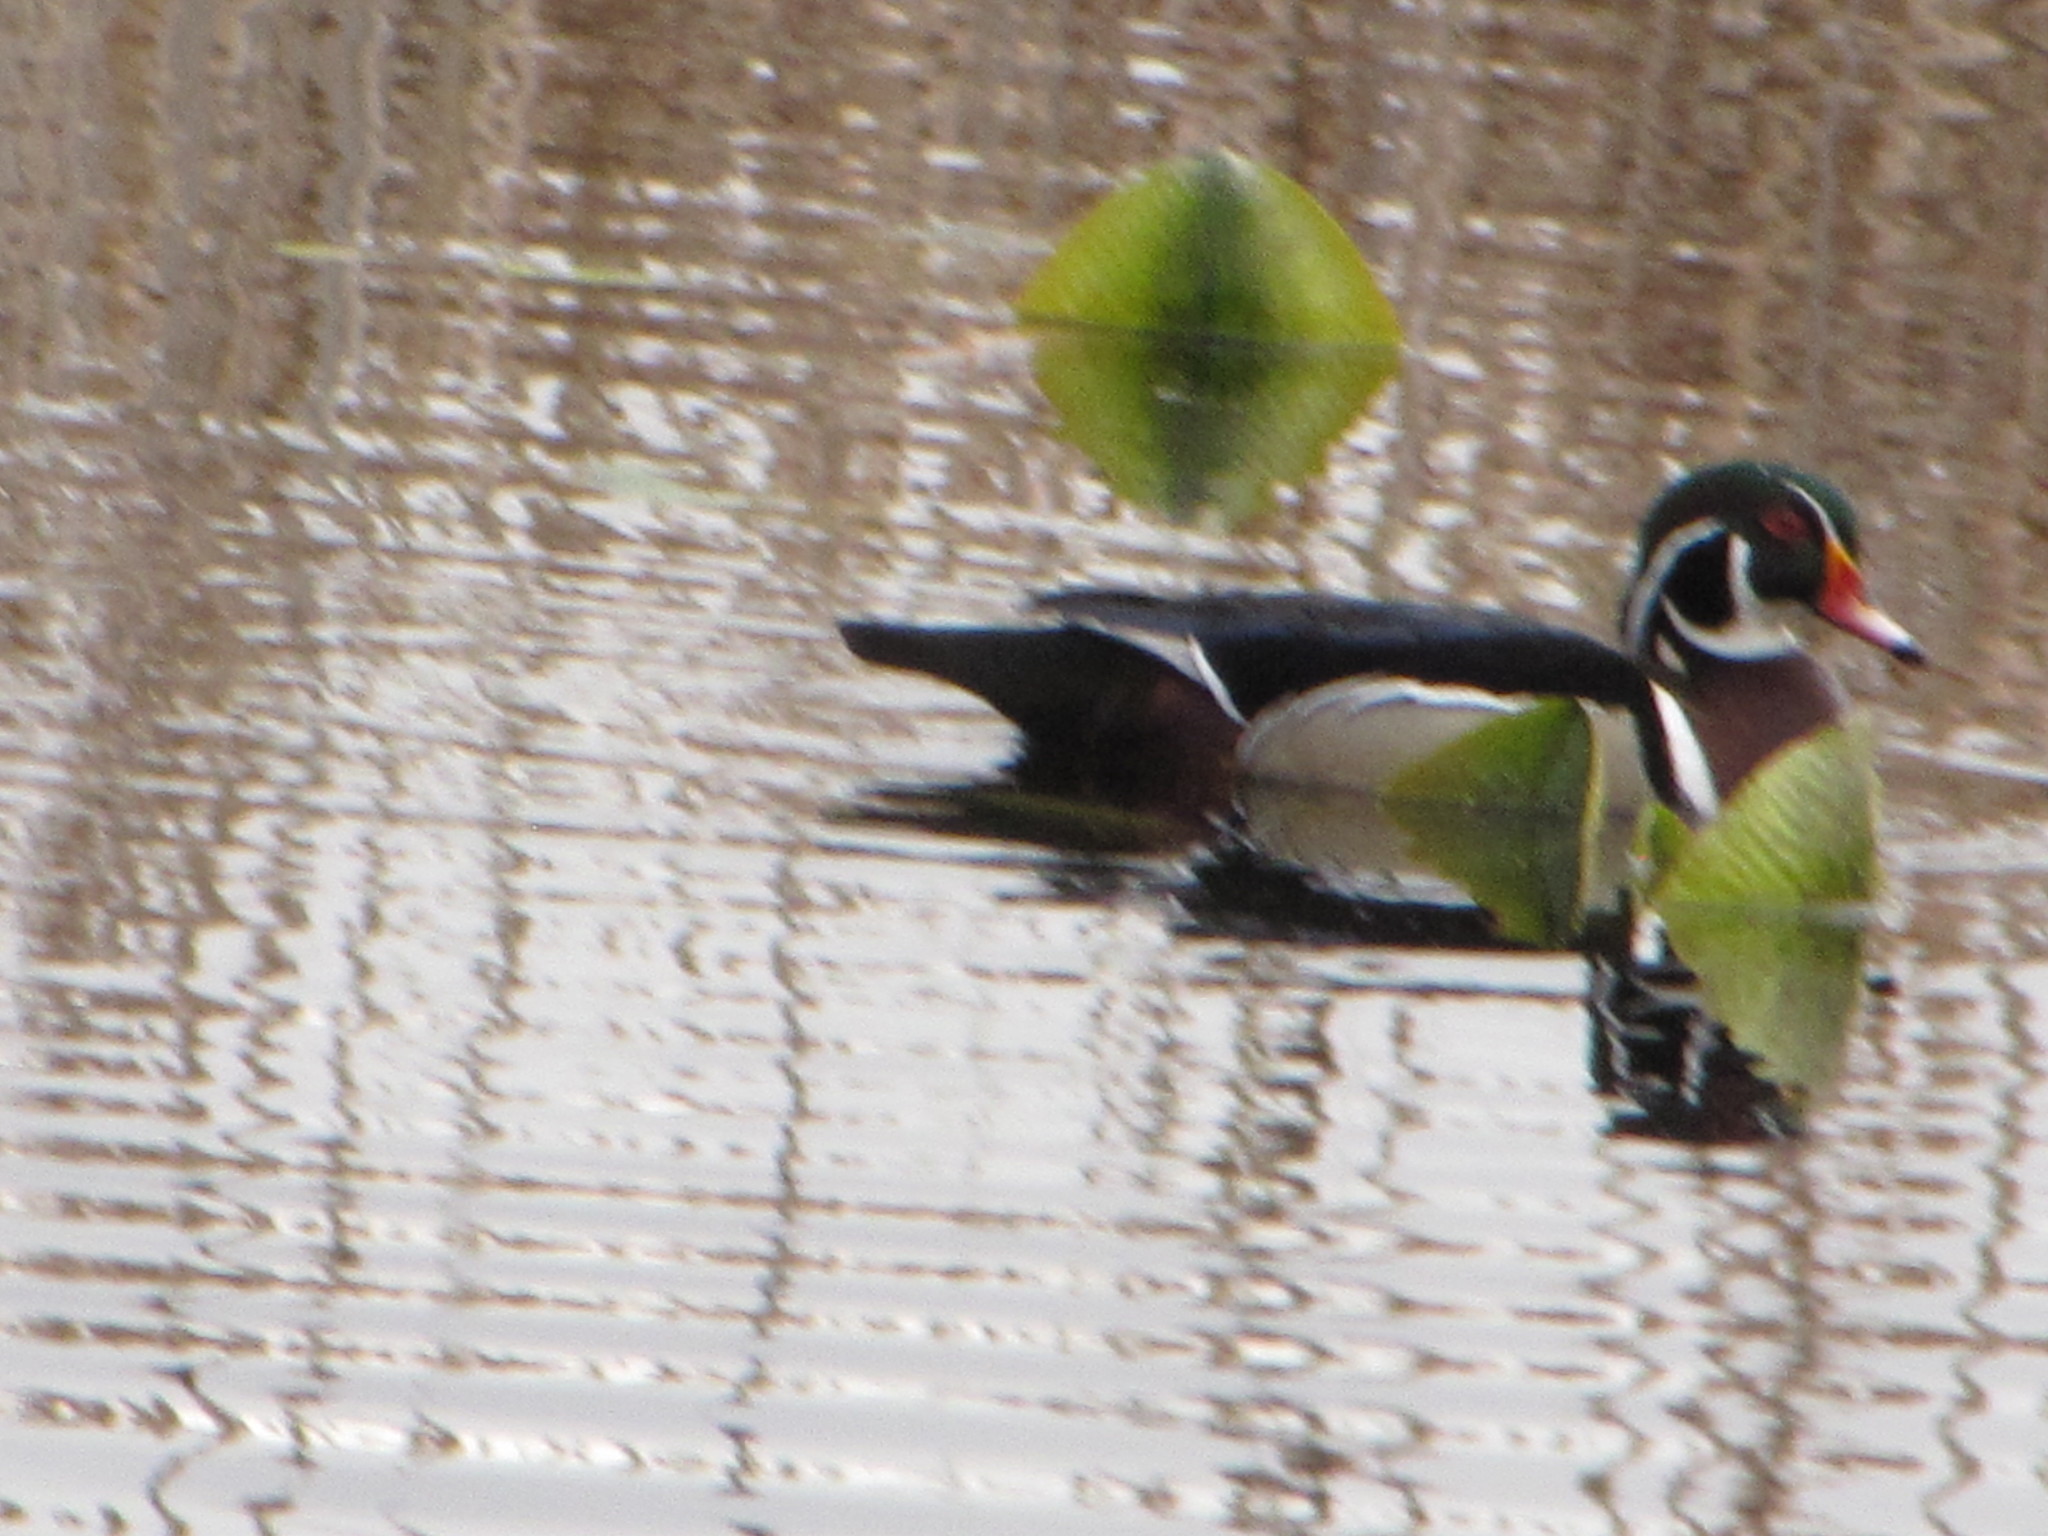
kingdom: Animalia
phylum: Chordata
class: Aves
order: Anseriformes
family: Anatidae
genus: Aix
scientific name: Aix sponsa
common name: Wood duck
